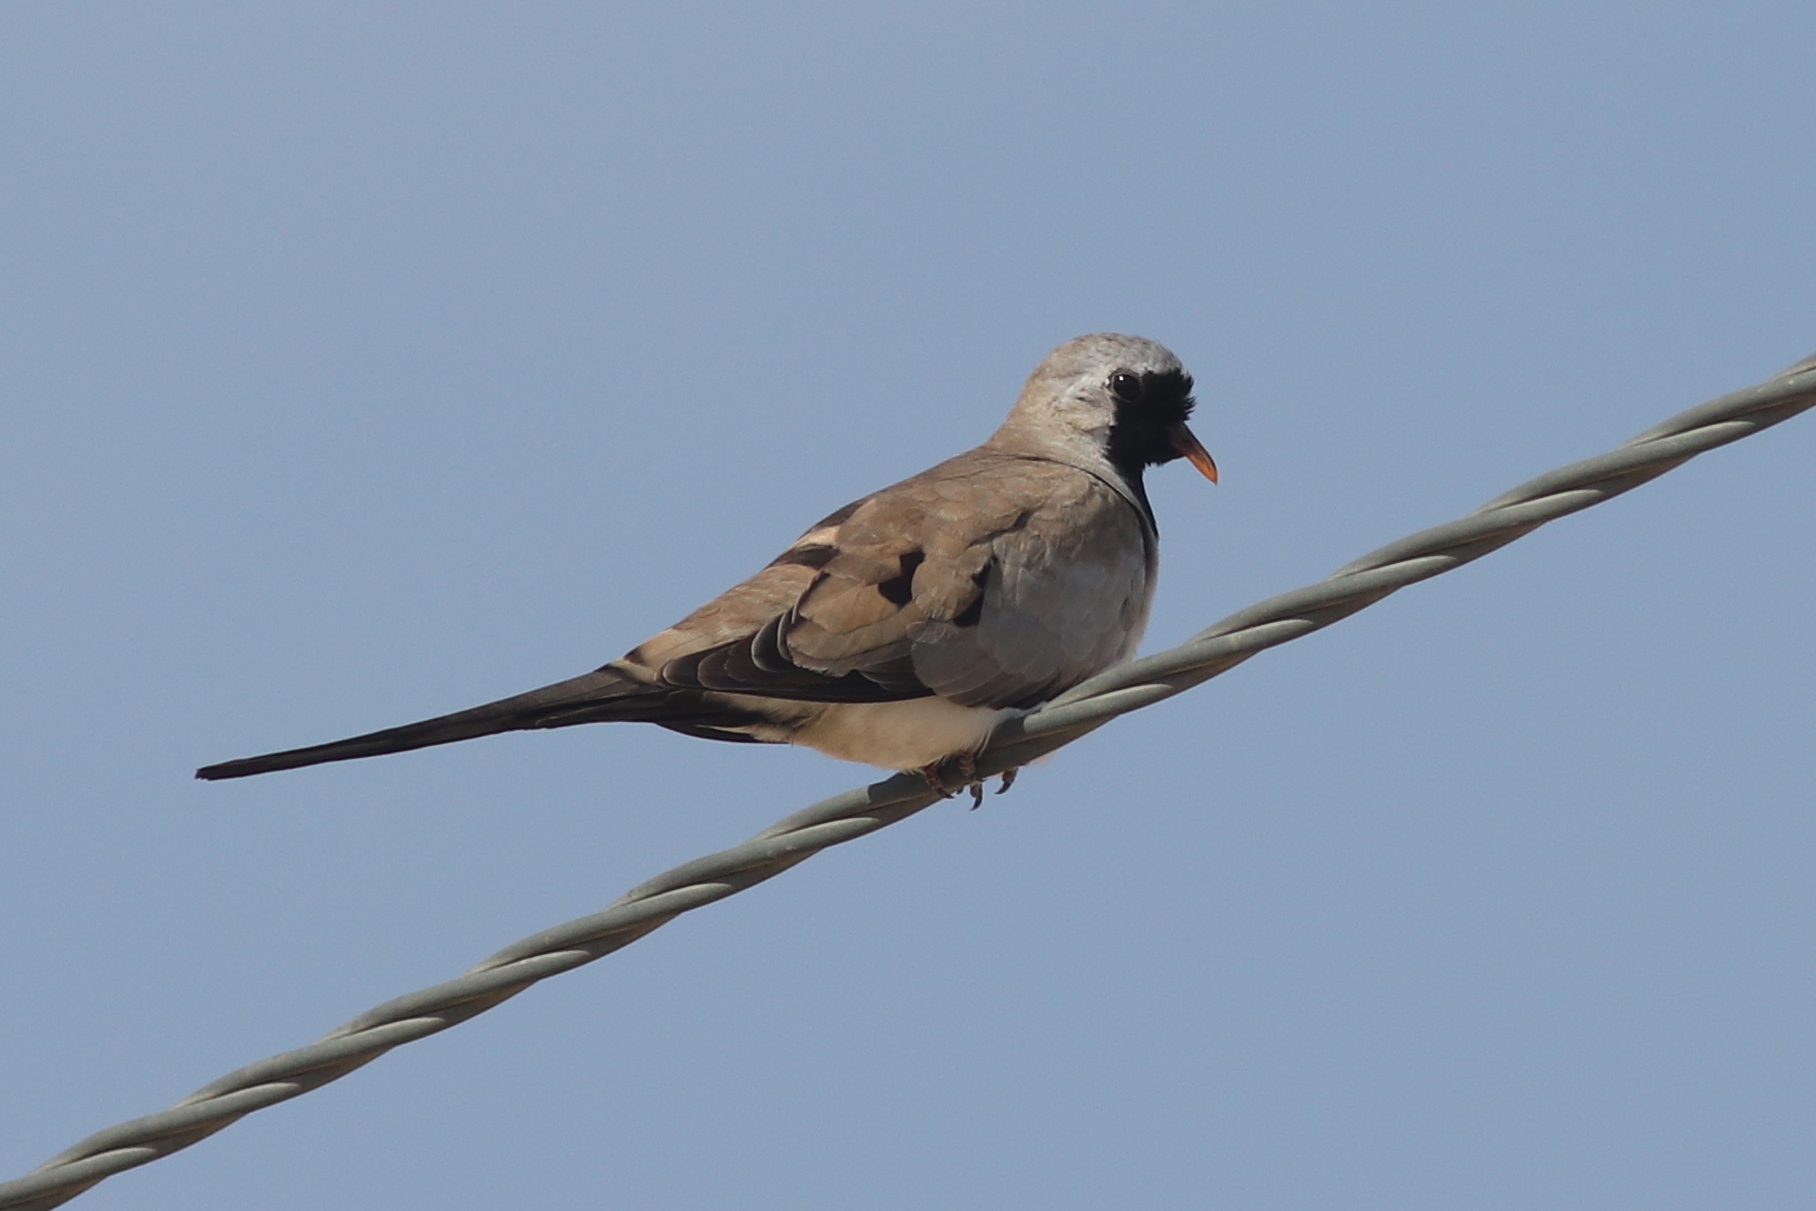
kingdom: Animalia
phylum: Chordata
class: Aves
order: Columbiformes
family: Columbidae
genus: Oena
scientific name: Oena capensis
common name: Namaqua dove
